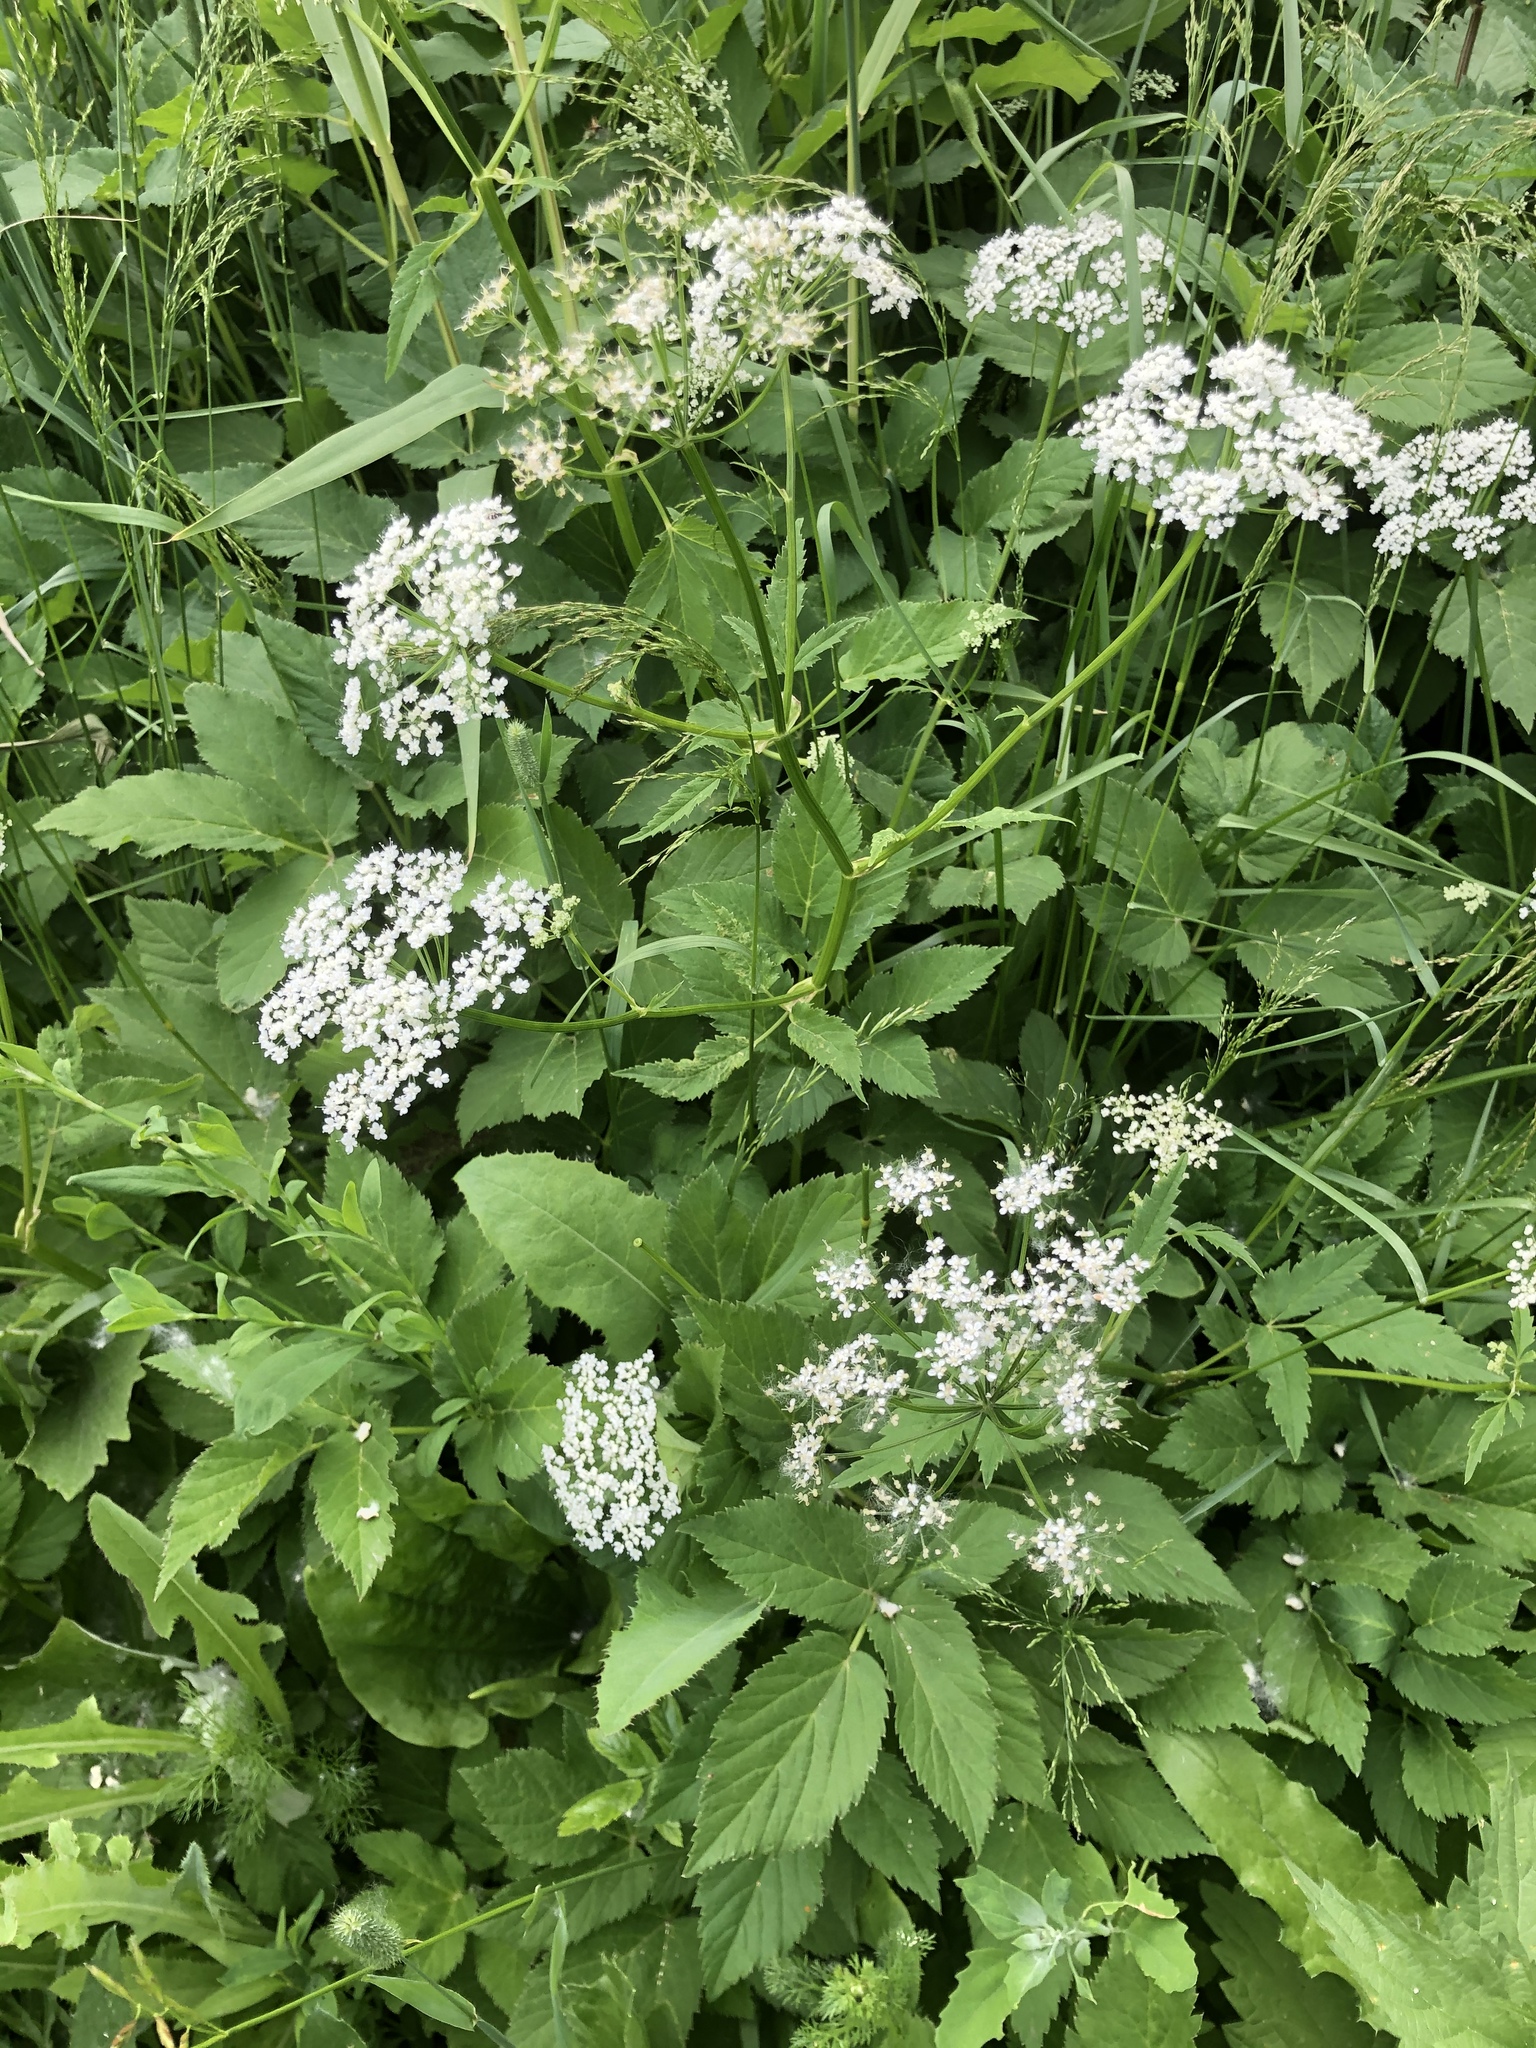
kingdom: Plantae
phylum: Tracheophyta
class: Magnoliopsida
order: Apiales
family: Apiaceae
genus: Aegopodium
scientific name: Aegopodium podagraria
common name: Ground-elder
